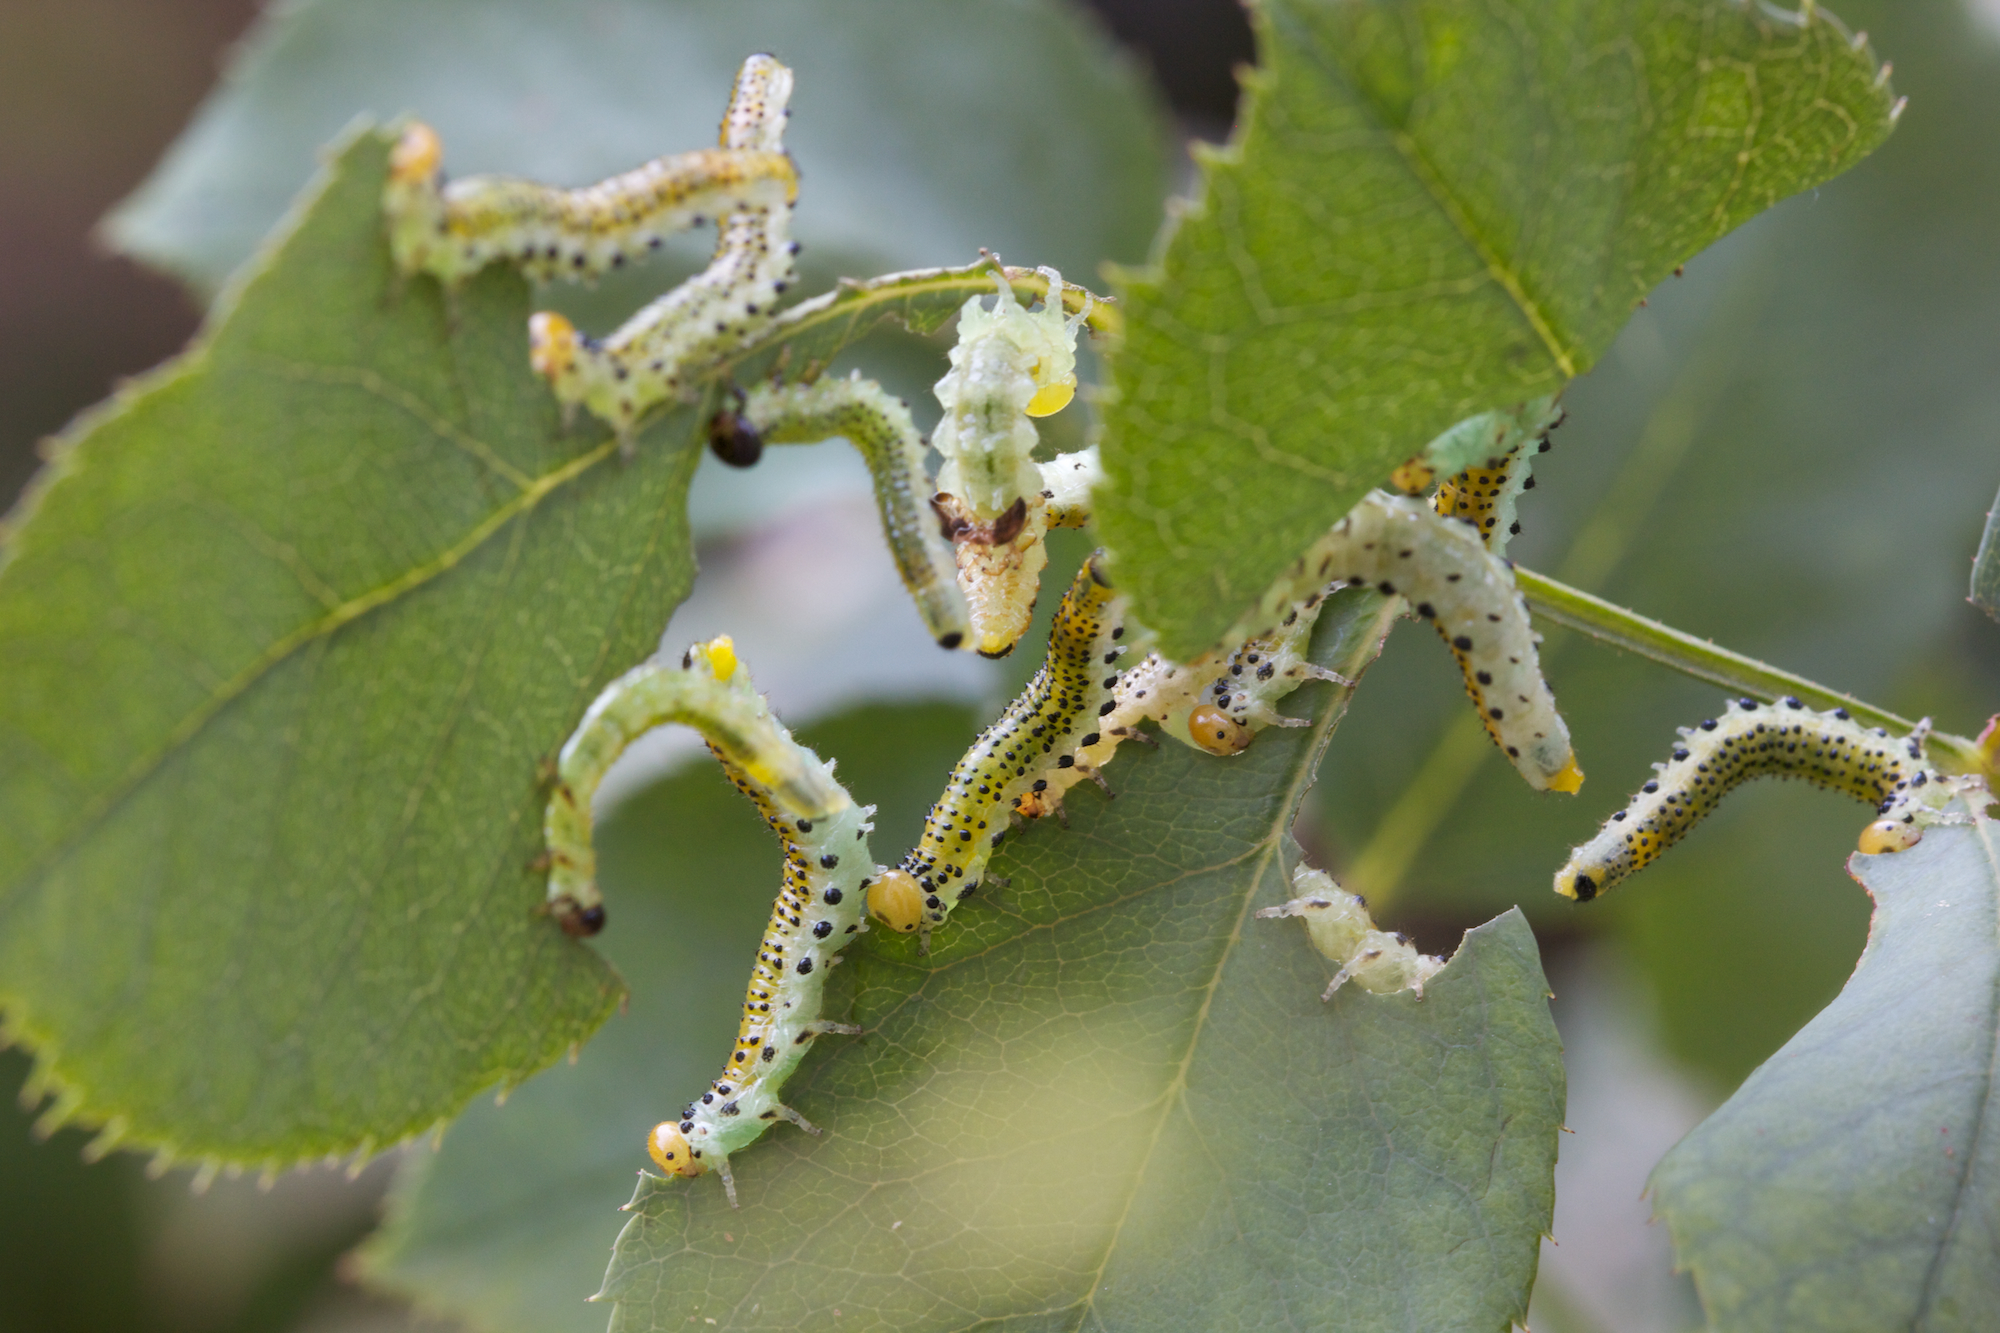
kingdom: Animalia
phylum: Arthropoda
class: Insecta
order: Hymenoptera
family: Argidae
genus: Arge
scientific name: Arge pagana
